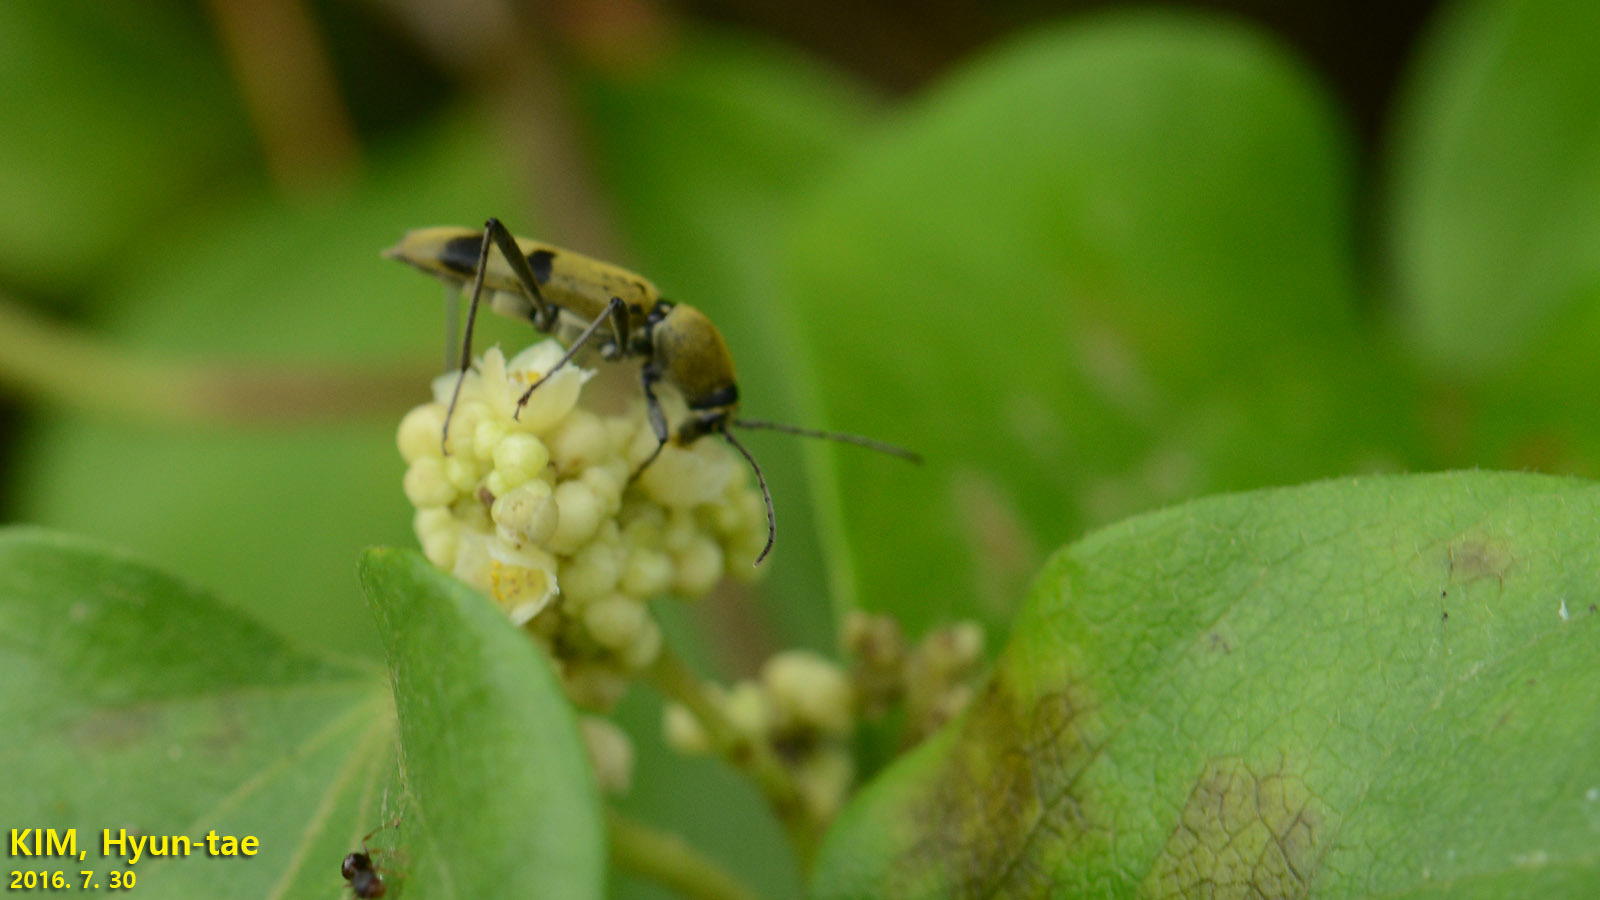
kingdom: Animalia
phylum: Arthropoda
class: Insecta
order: Coleoptera
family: Cerambycidae
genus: Chlorophorus
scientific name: Chlorophorus muscosus
